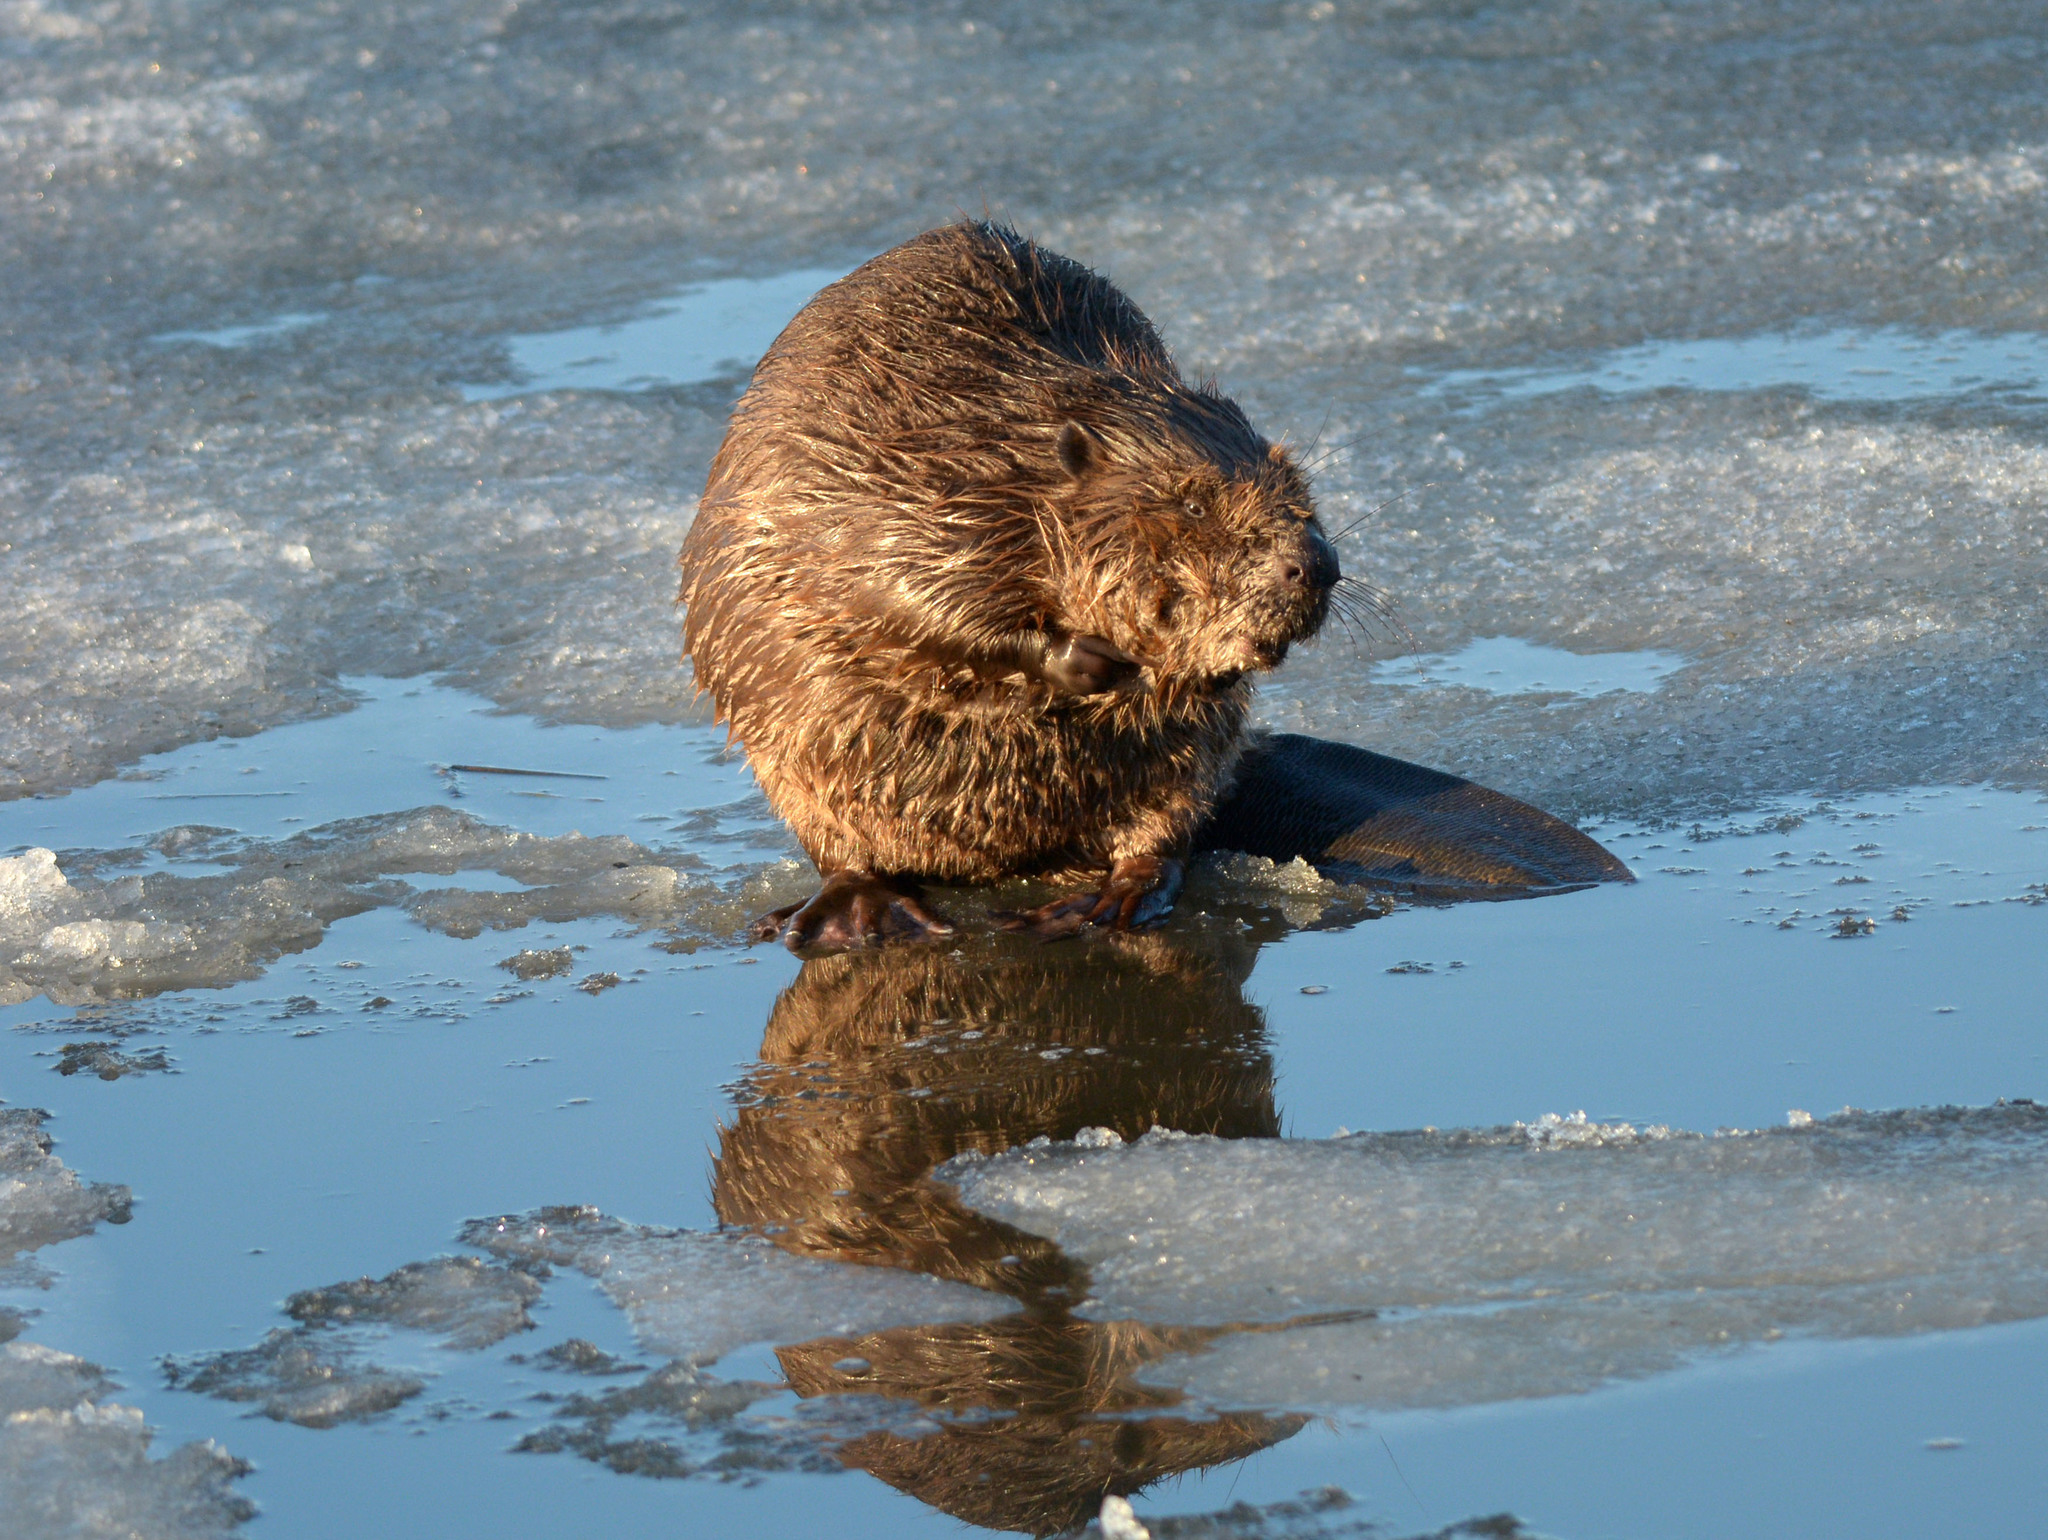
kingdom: Animalia
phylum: Chordata
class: Mammalia
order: Rodentia
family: Castoridae
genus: Castor
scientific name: Castor fiber
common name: Eurasian beaver
